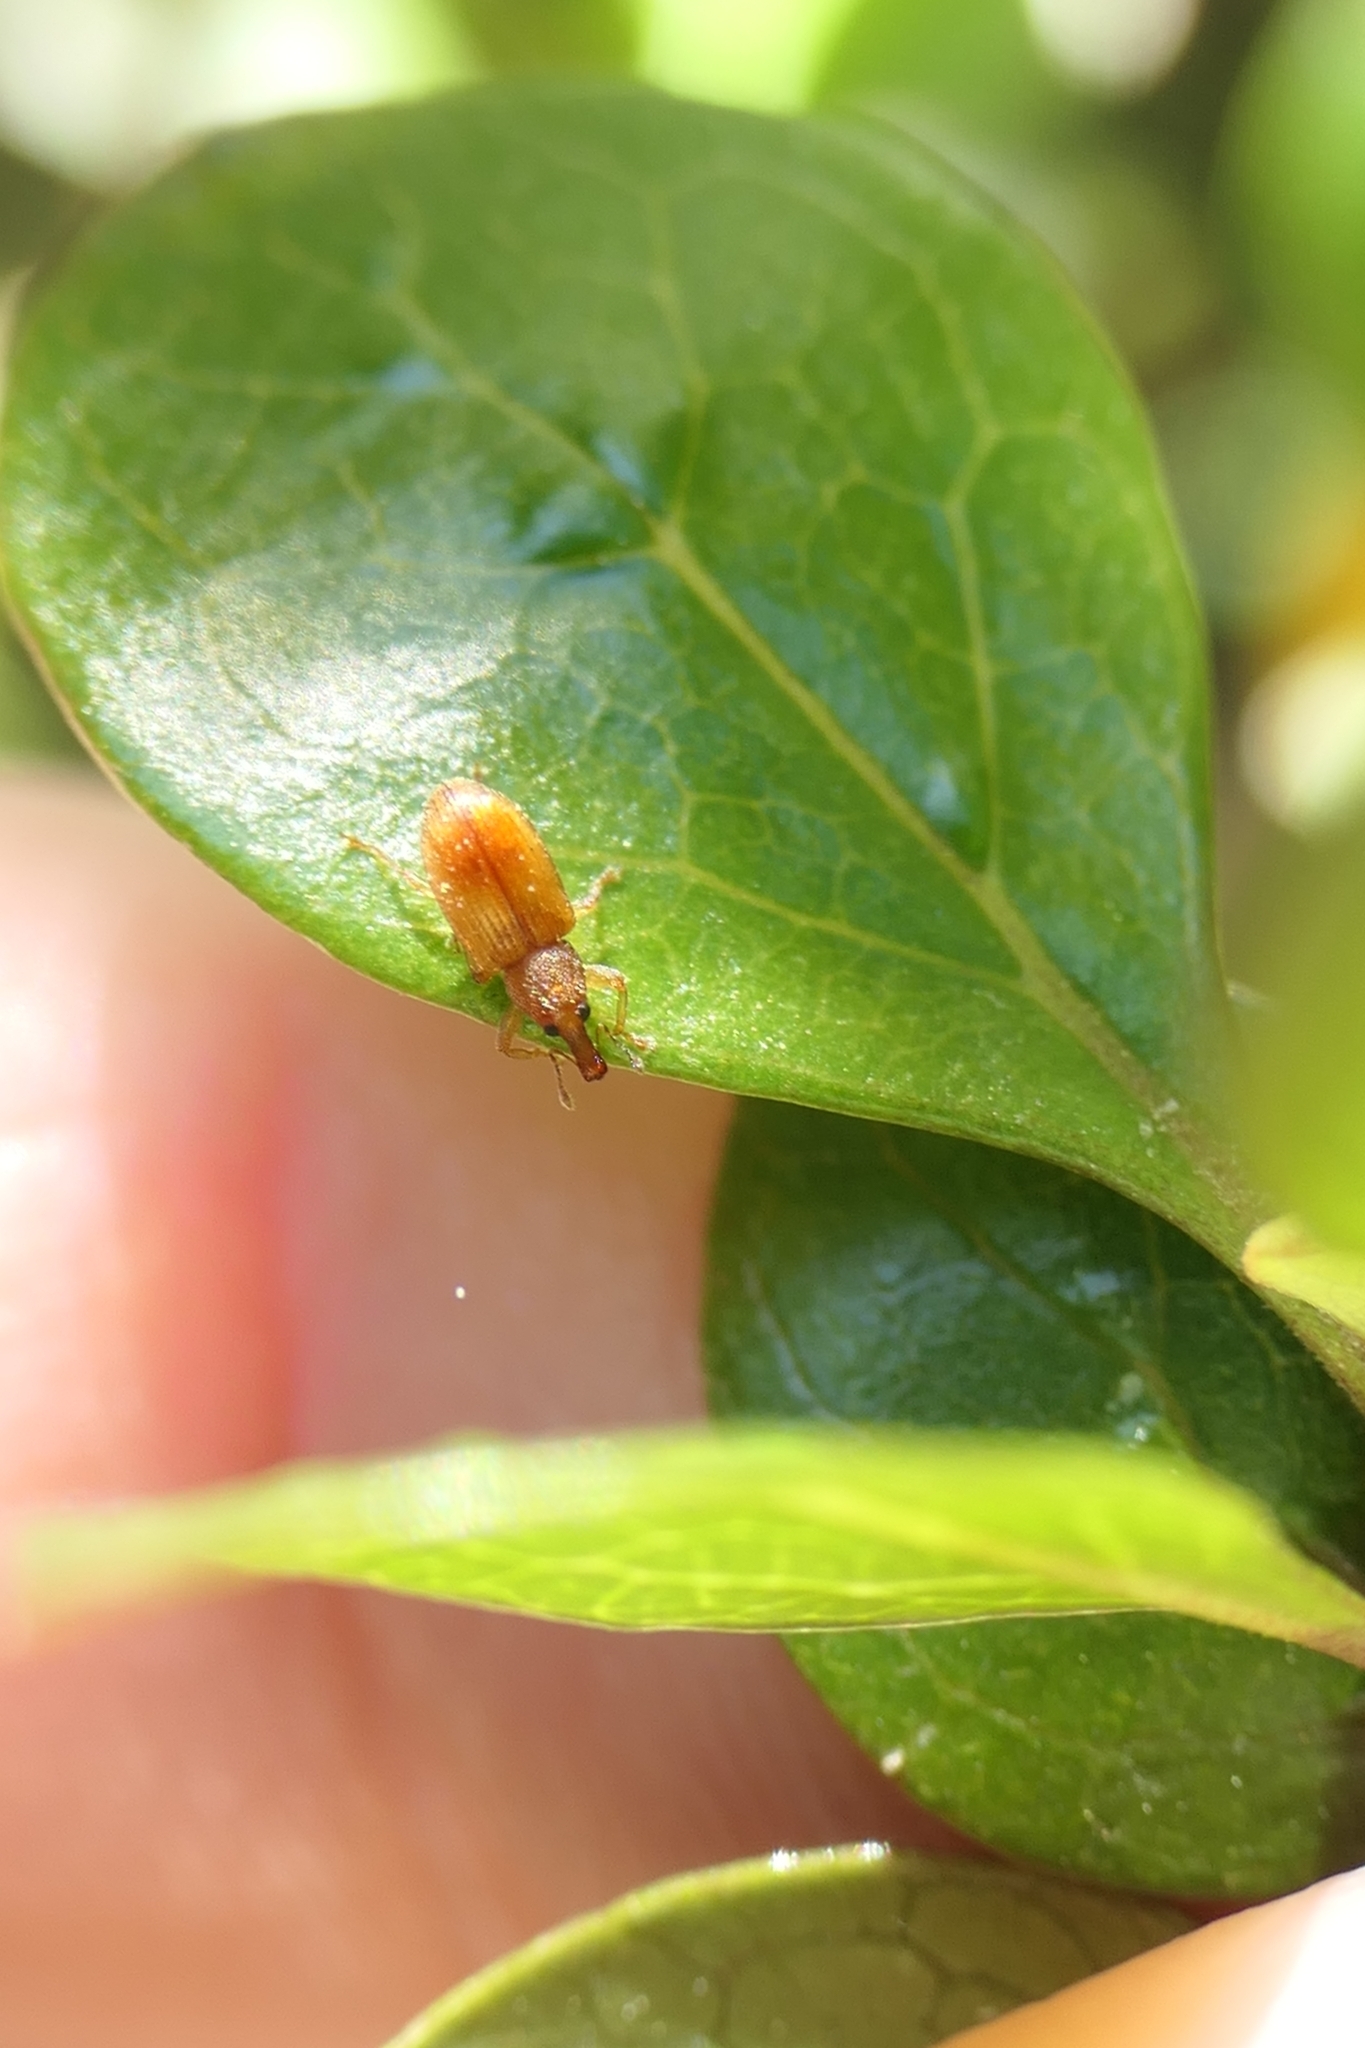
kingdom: Animalia
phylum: Arthropoda
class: Insecta
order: Coleoptera
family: Curculionidae
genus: Neomycta
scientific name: Neomycta pulicaris
